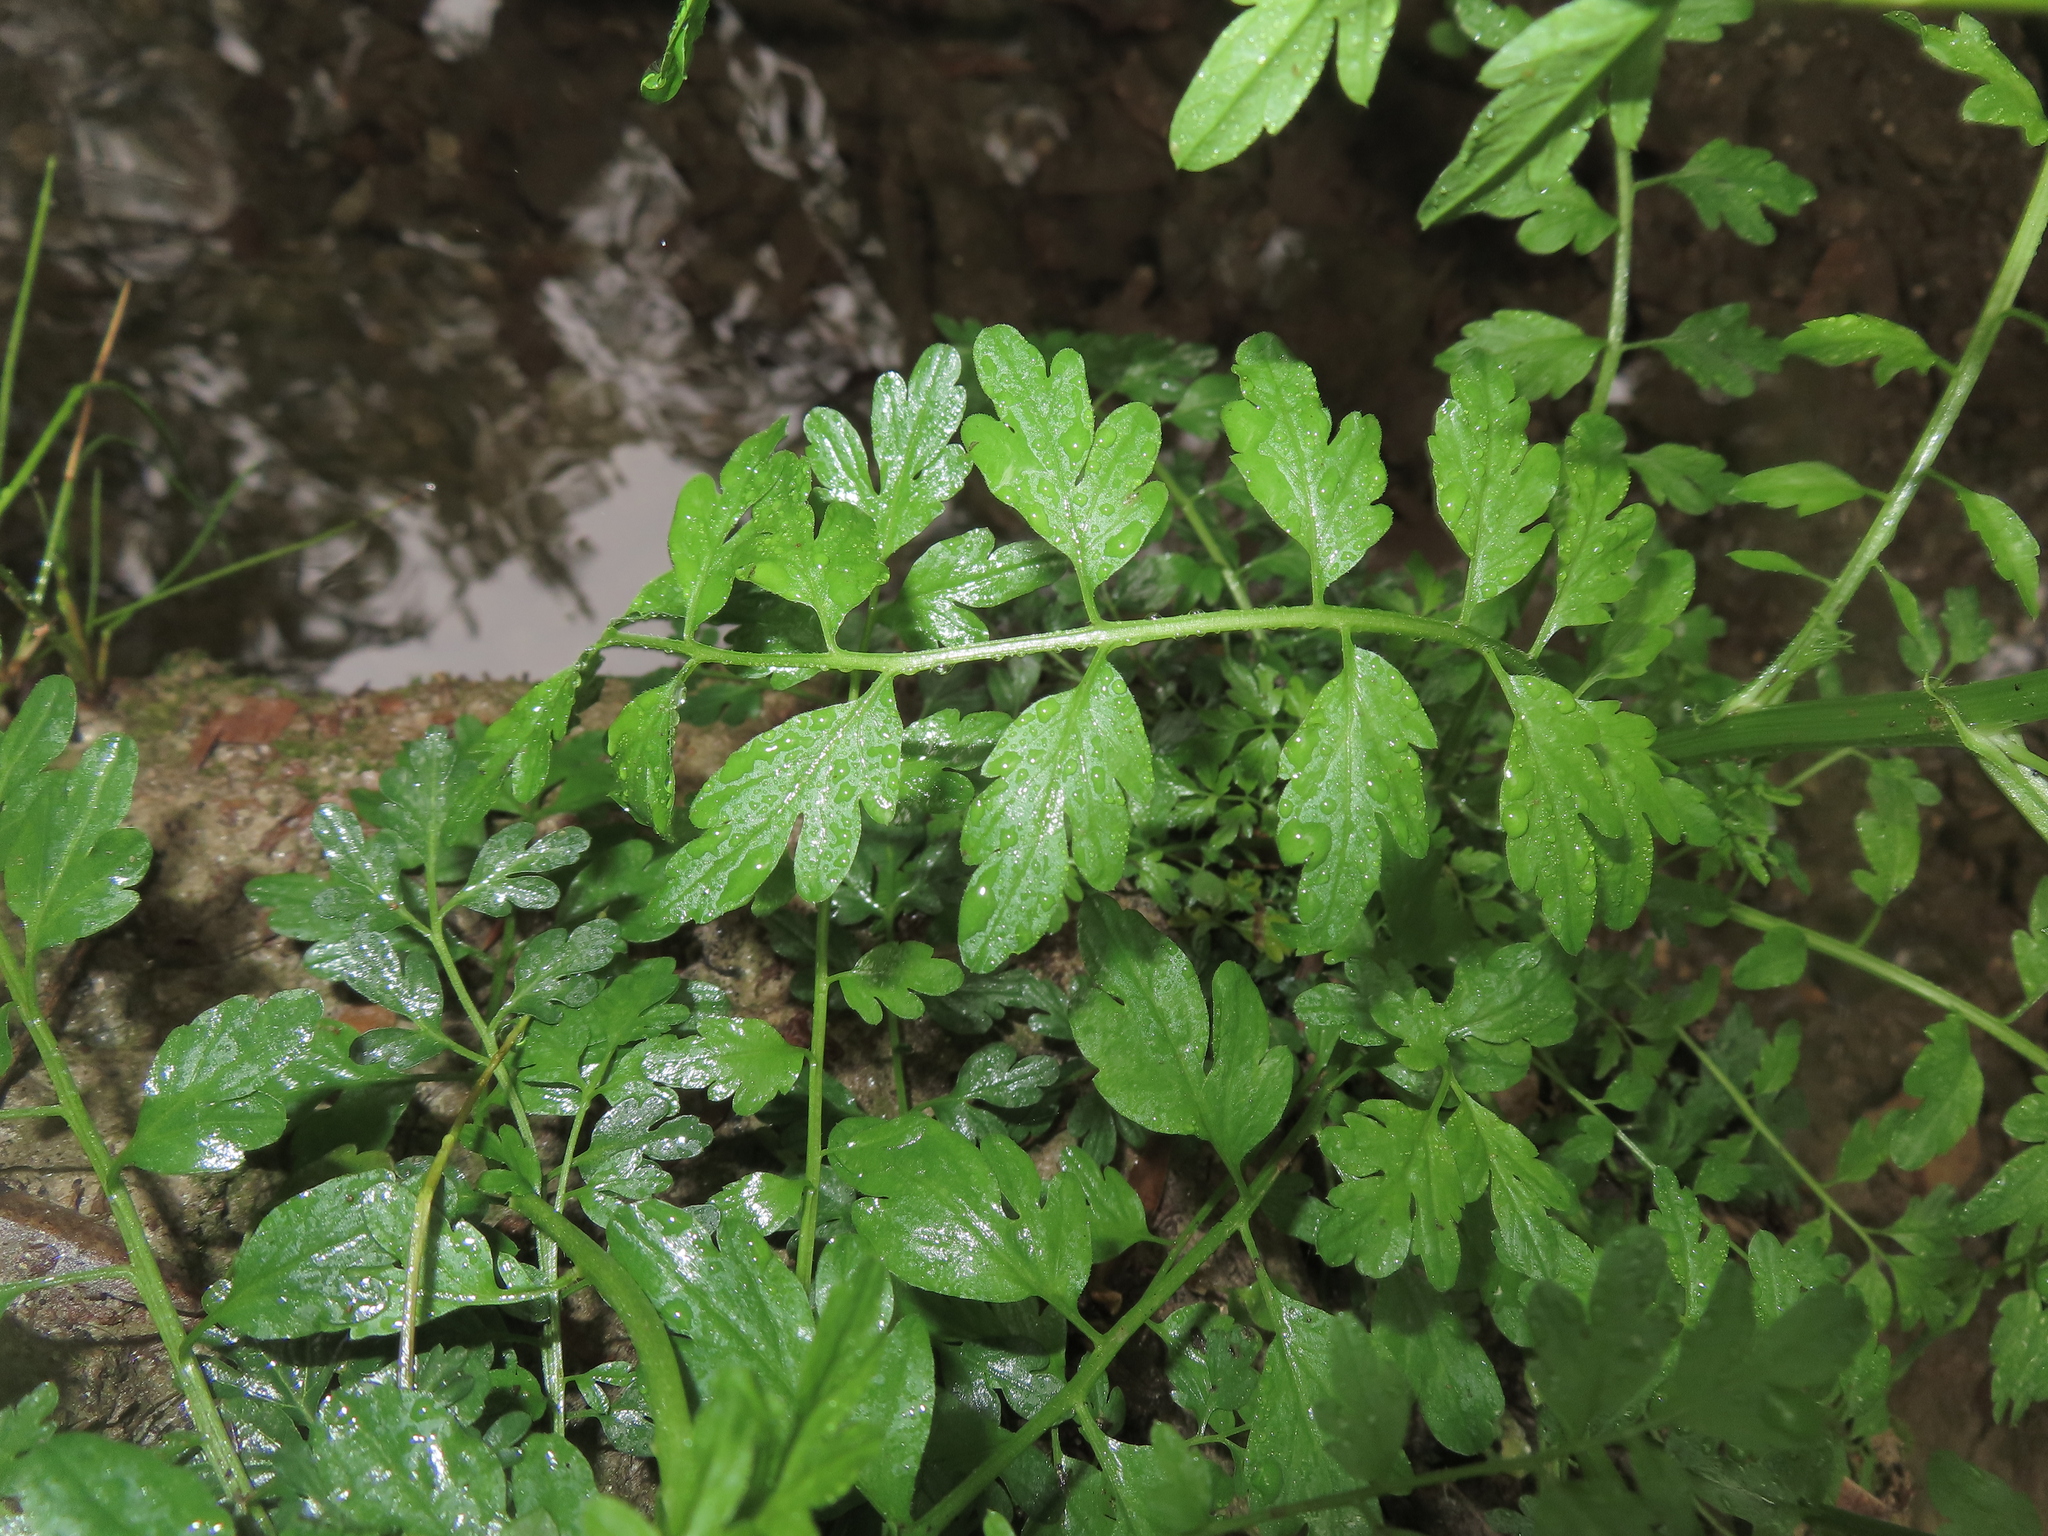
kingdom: Plantae
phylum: Tracheophyta
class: Magnoliopsida
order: Brassicales
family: Brassicaceae
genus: Cardamine
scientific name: Cardamine impatiens
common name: Narrow-leaved bitter-cress
